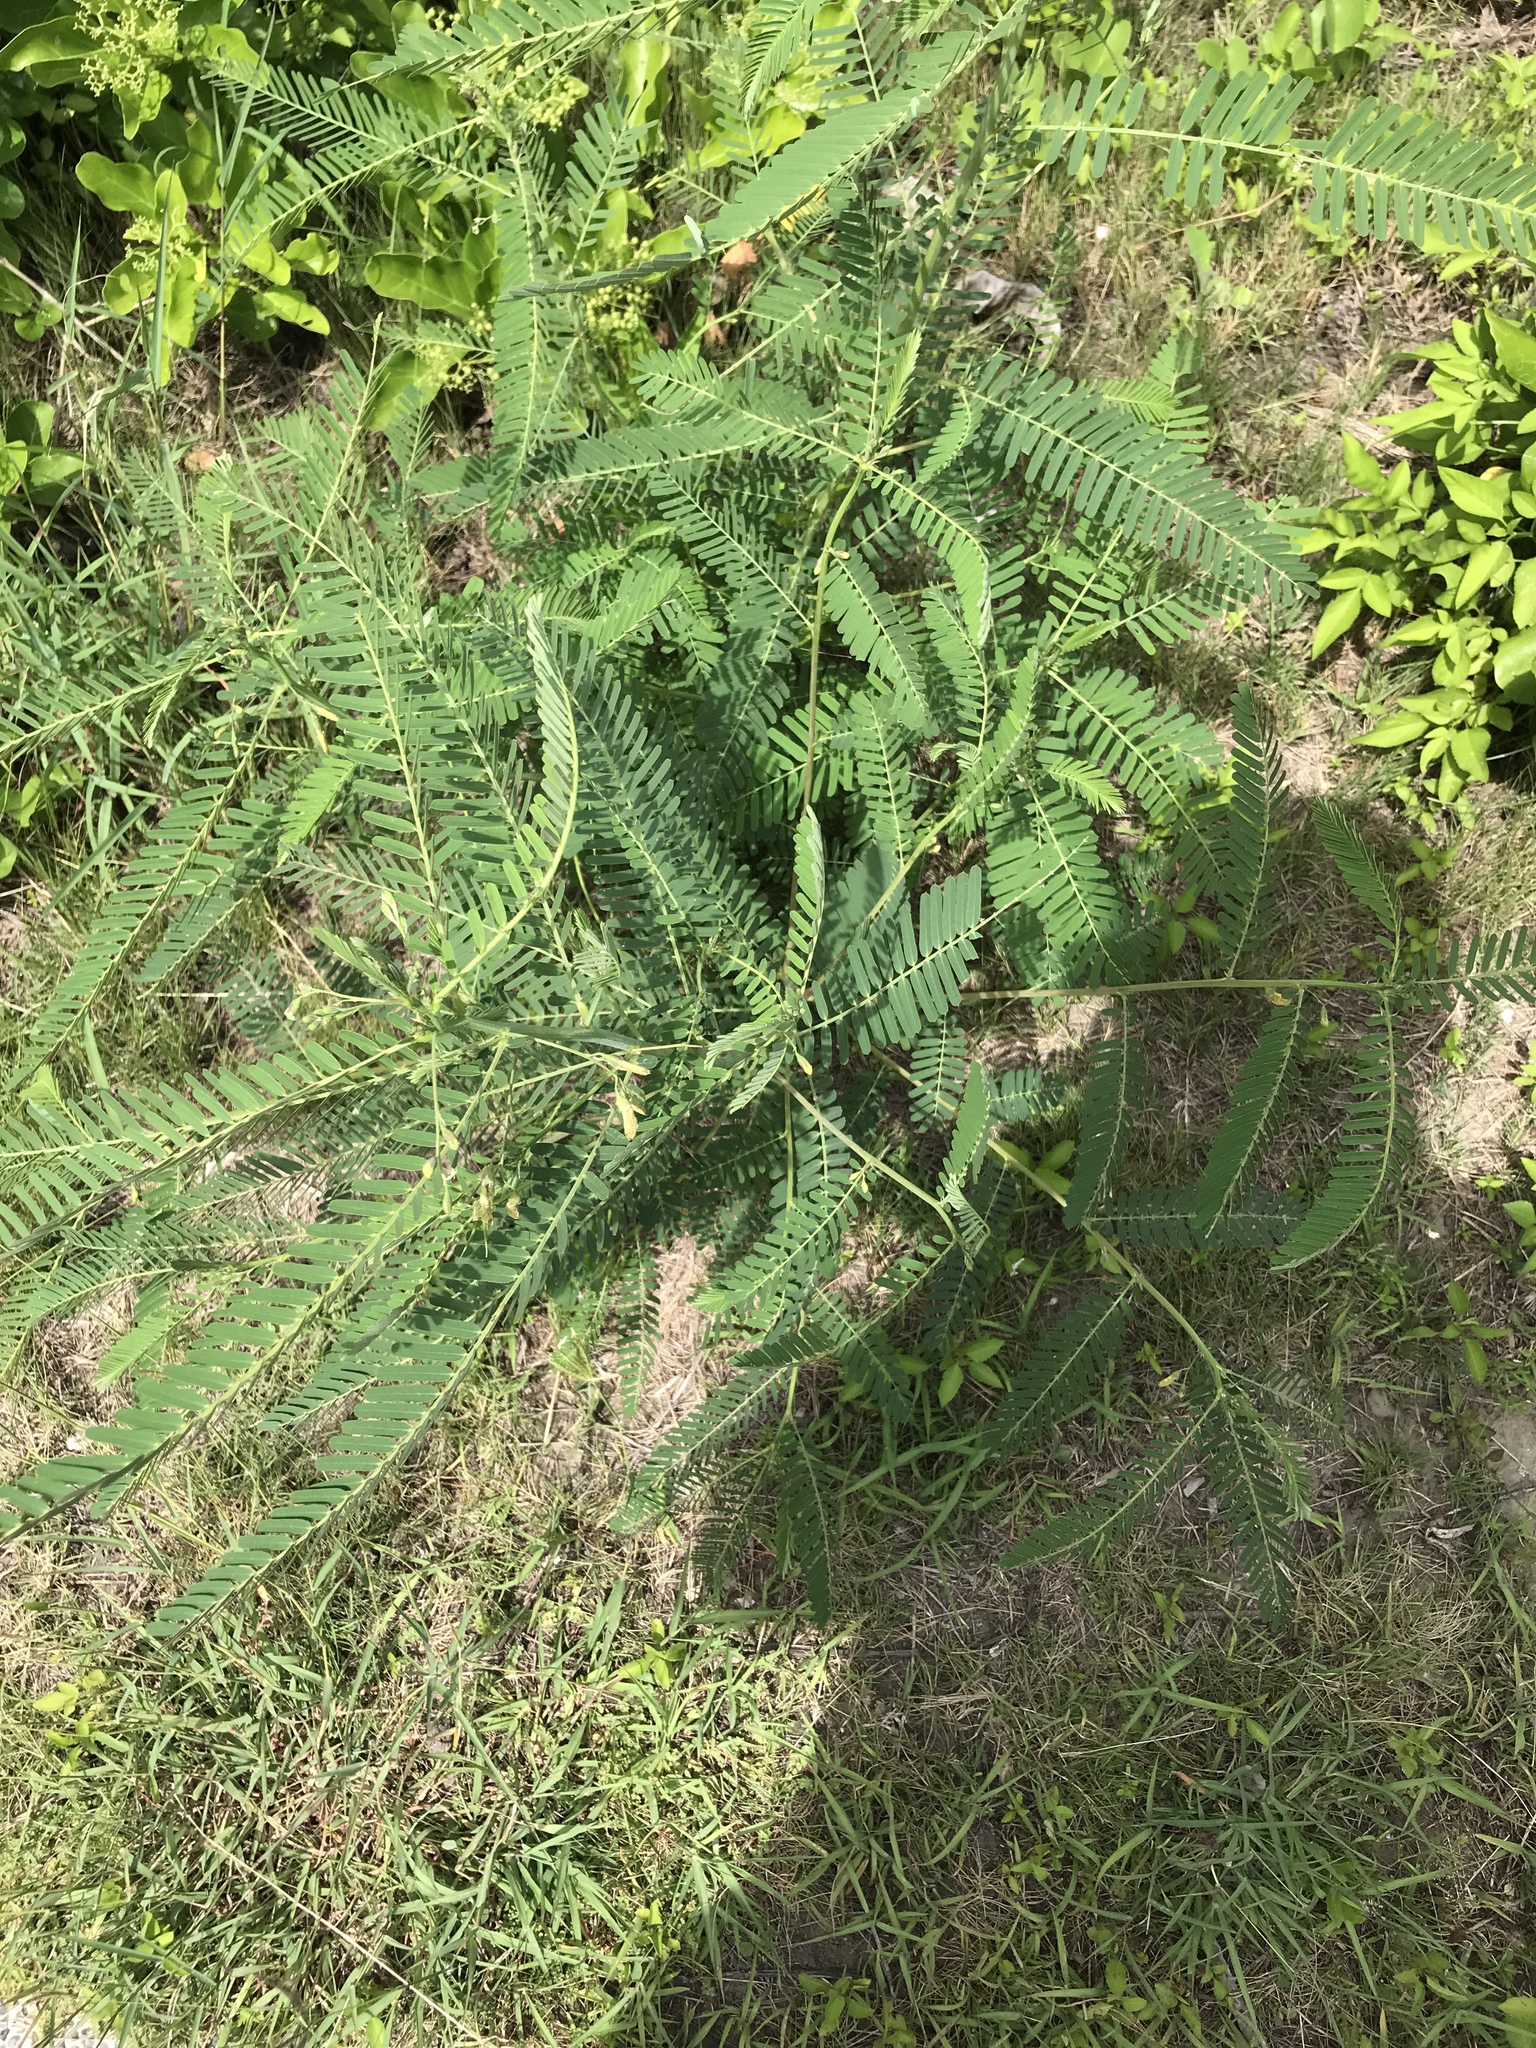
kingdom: Plantae
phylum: Tracheophyta
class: Magnoliopsida
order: Fabales
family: Fabaceae
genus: Sesbania
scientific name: Sesbania cannabina
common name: Canicha
